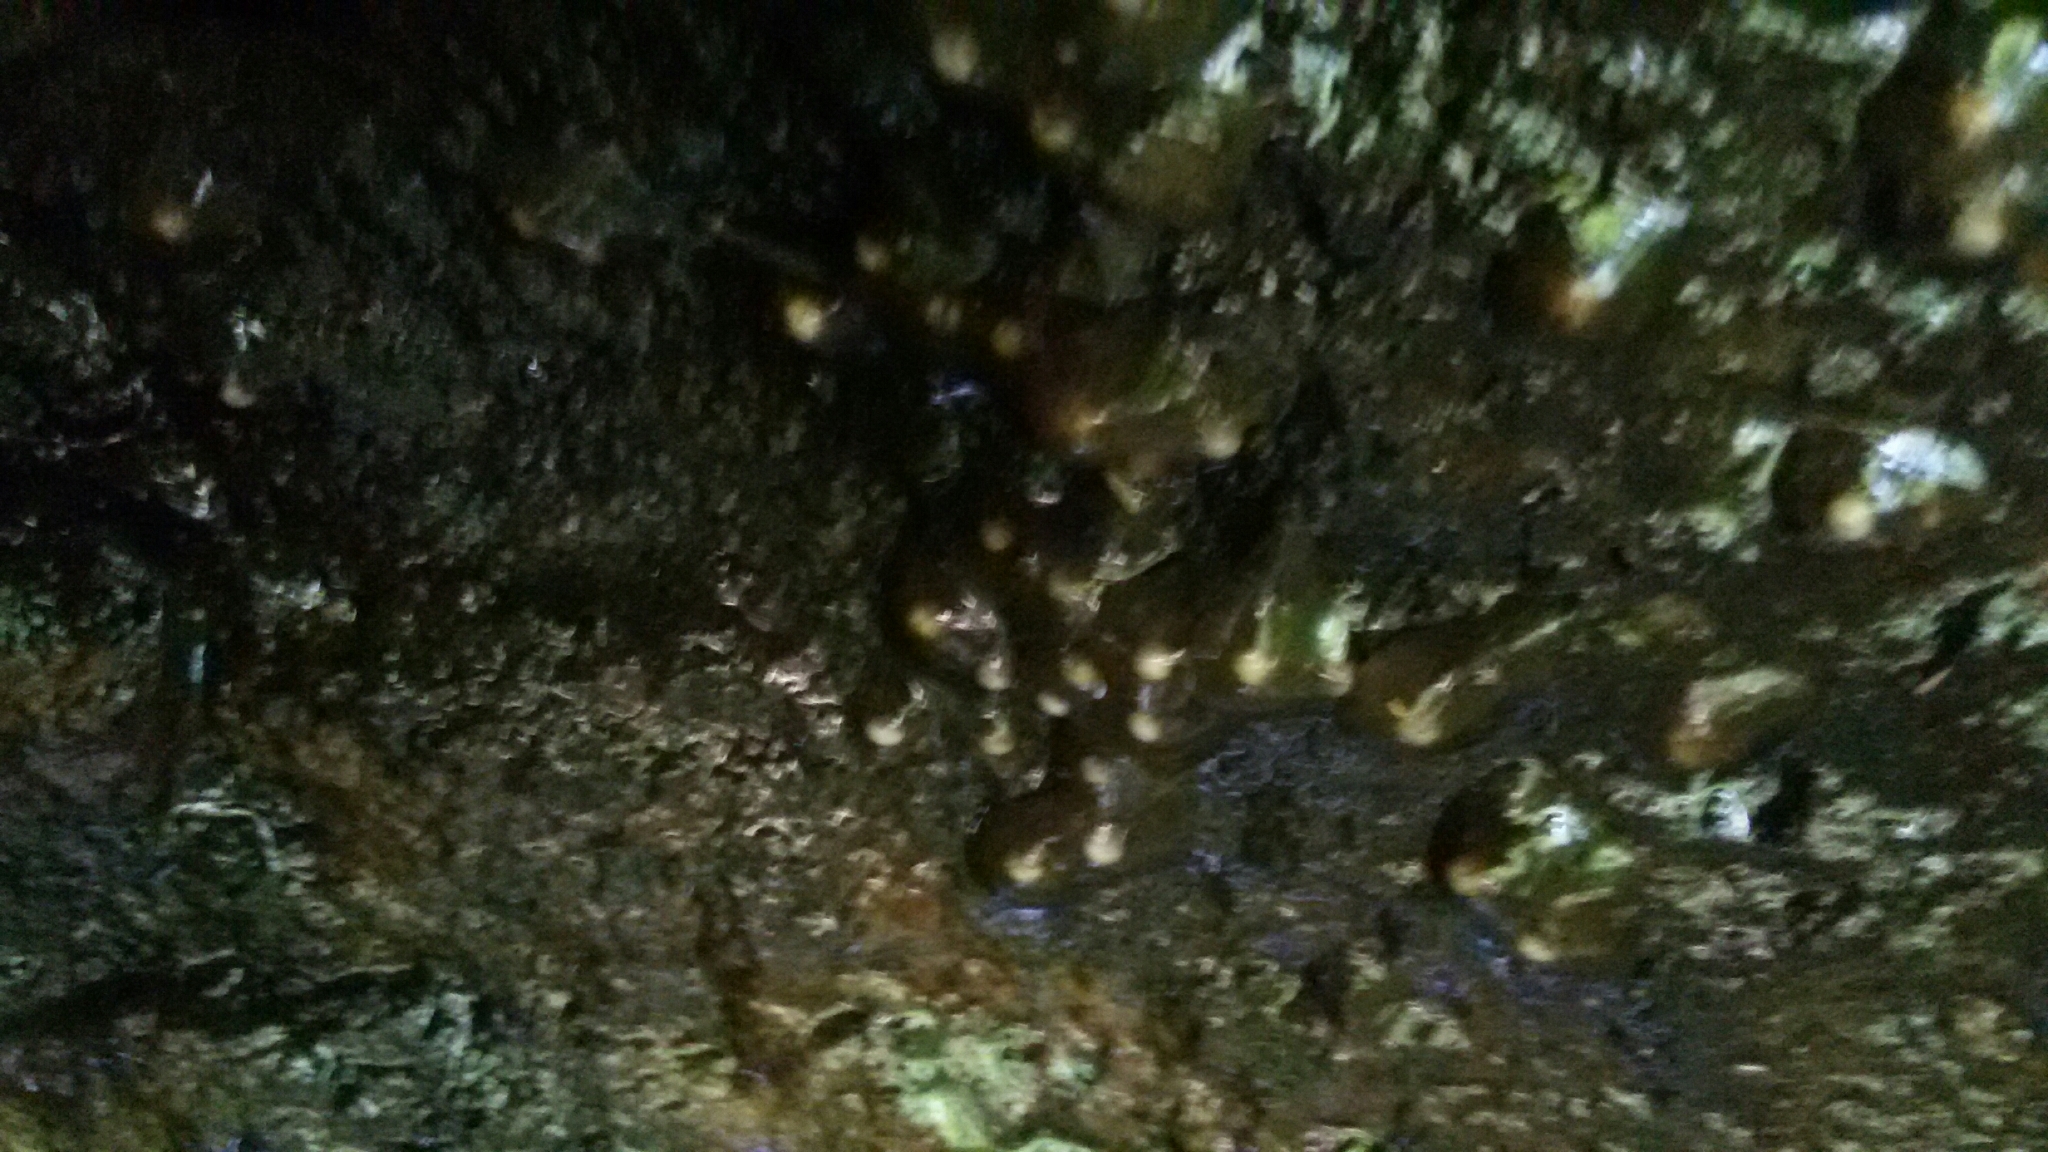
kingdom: Animalia
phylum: Chordata
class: Amphibia
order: Caudata
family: Salamandridae
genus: Salamandrina
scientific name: Salamandrina perspicillata
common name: Northern spectacled salamander
